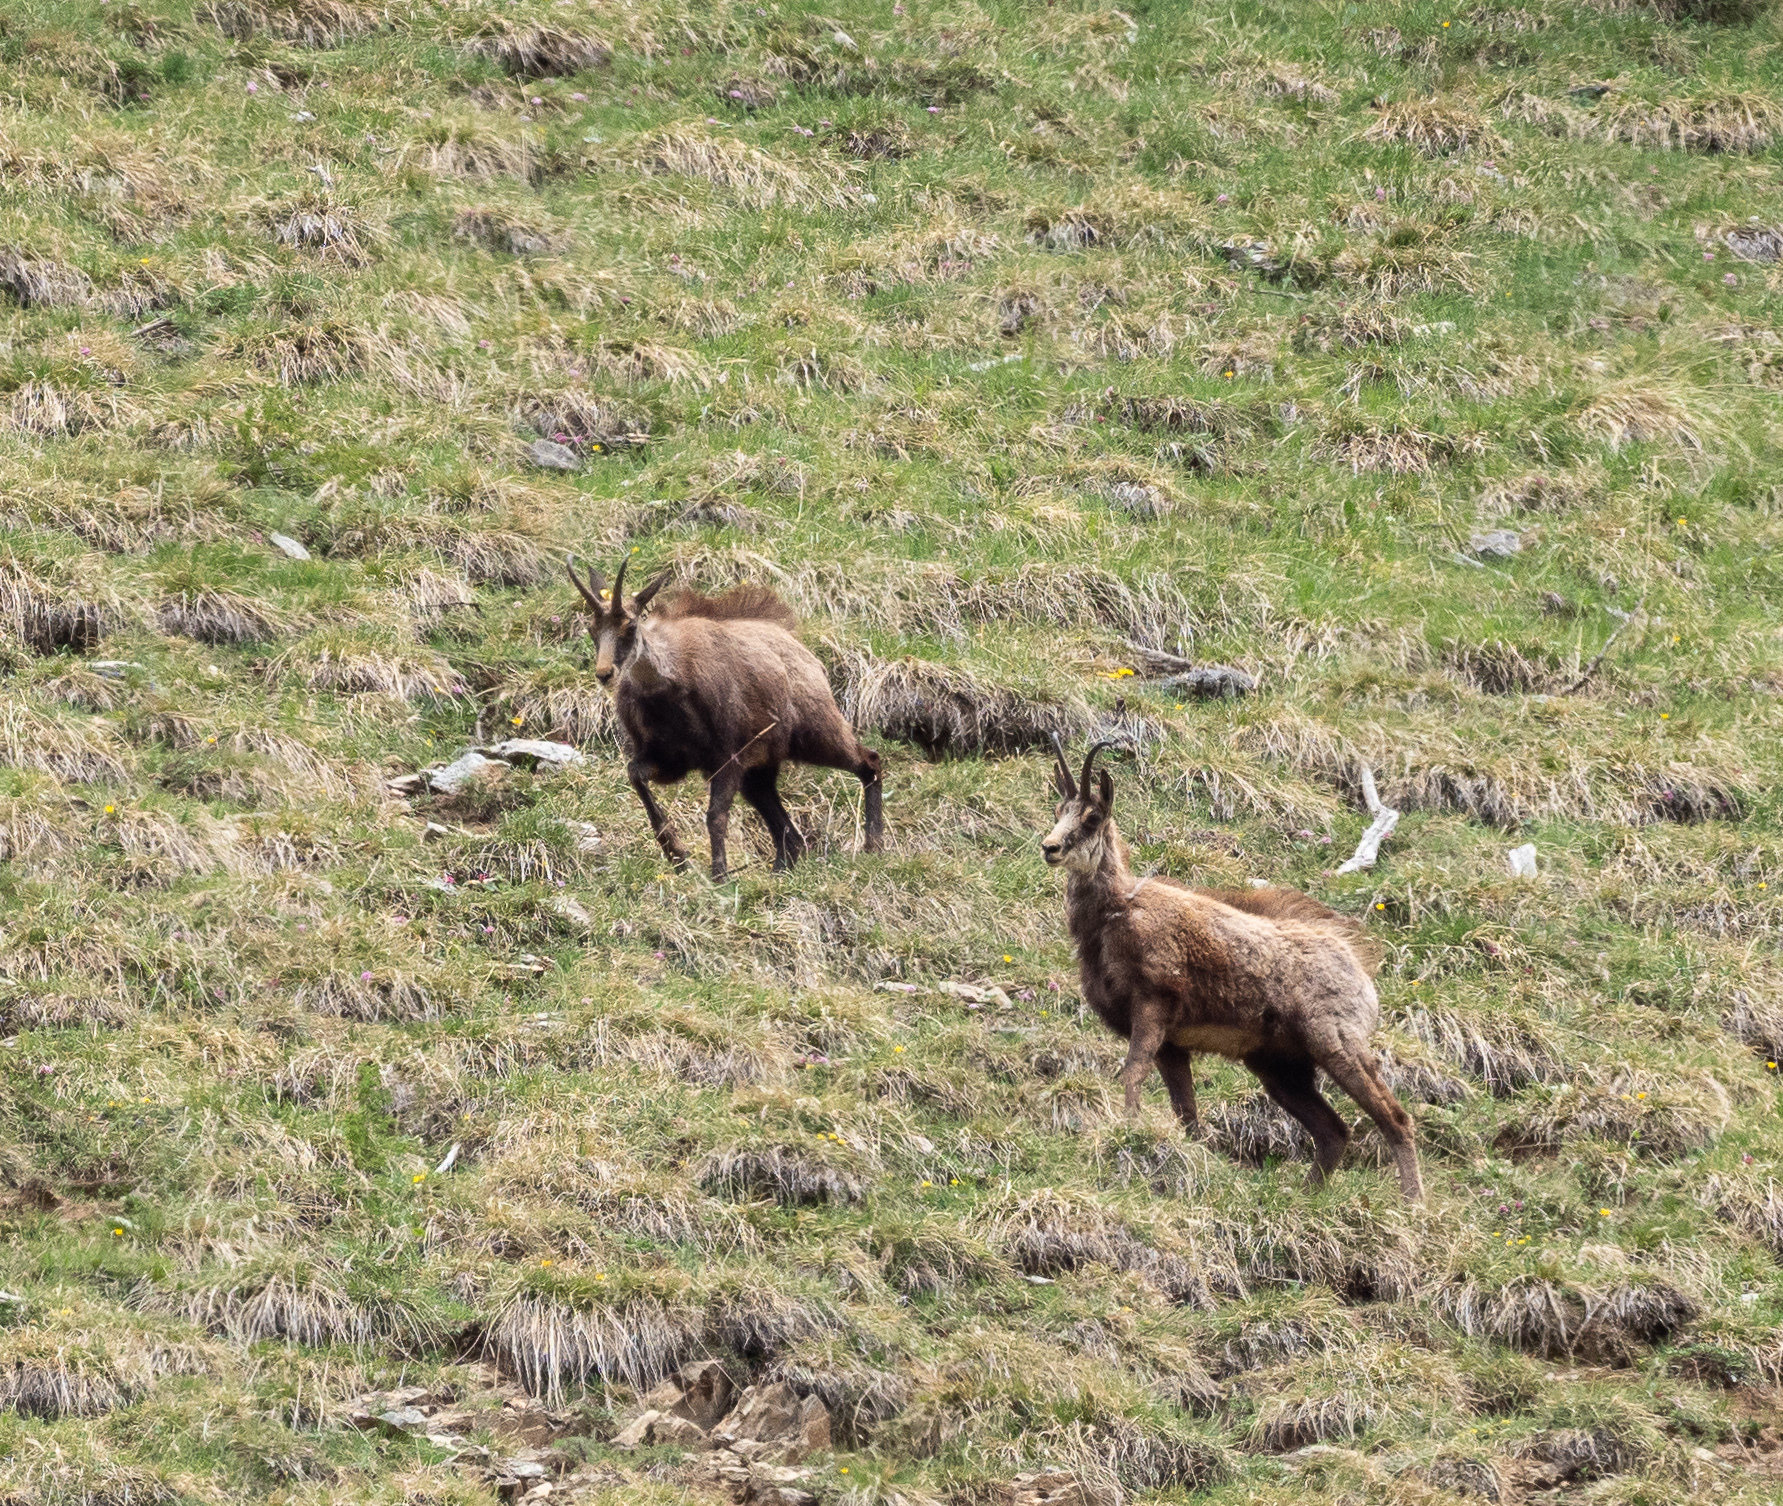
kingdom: Animalia
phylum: Chordata
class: Mammalia
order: Artiodactyla
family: Bovidae
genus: Rupicapra
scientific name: Rupicapra rupicapra
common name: Chamois
